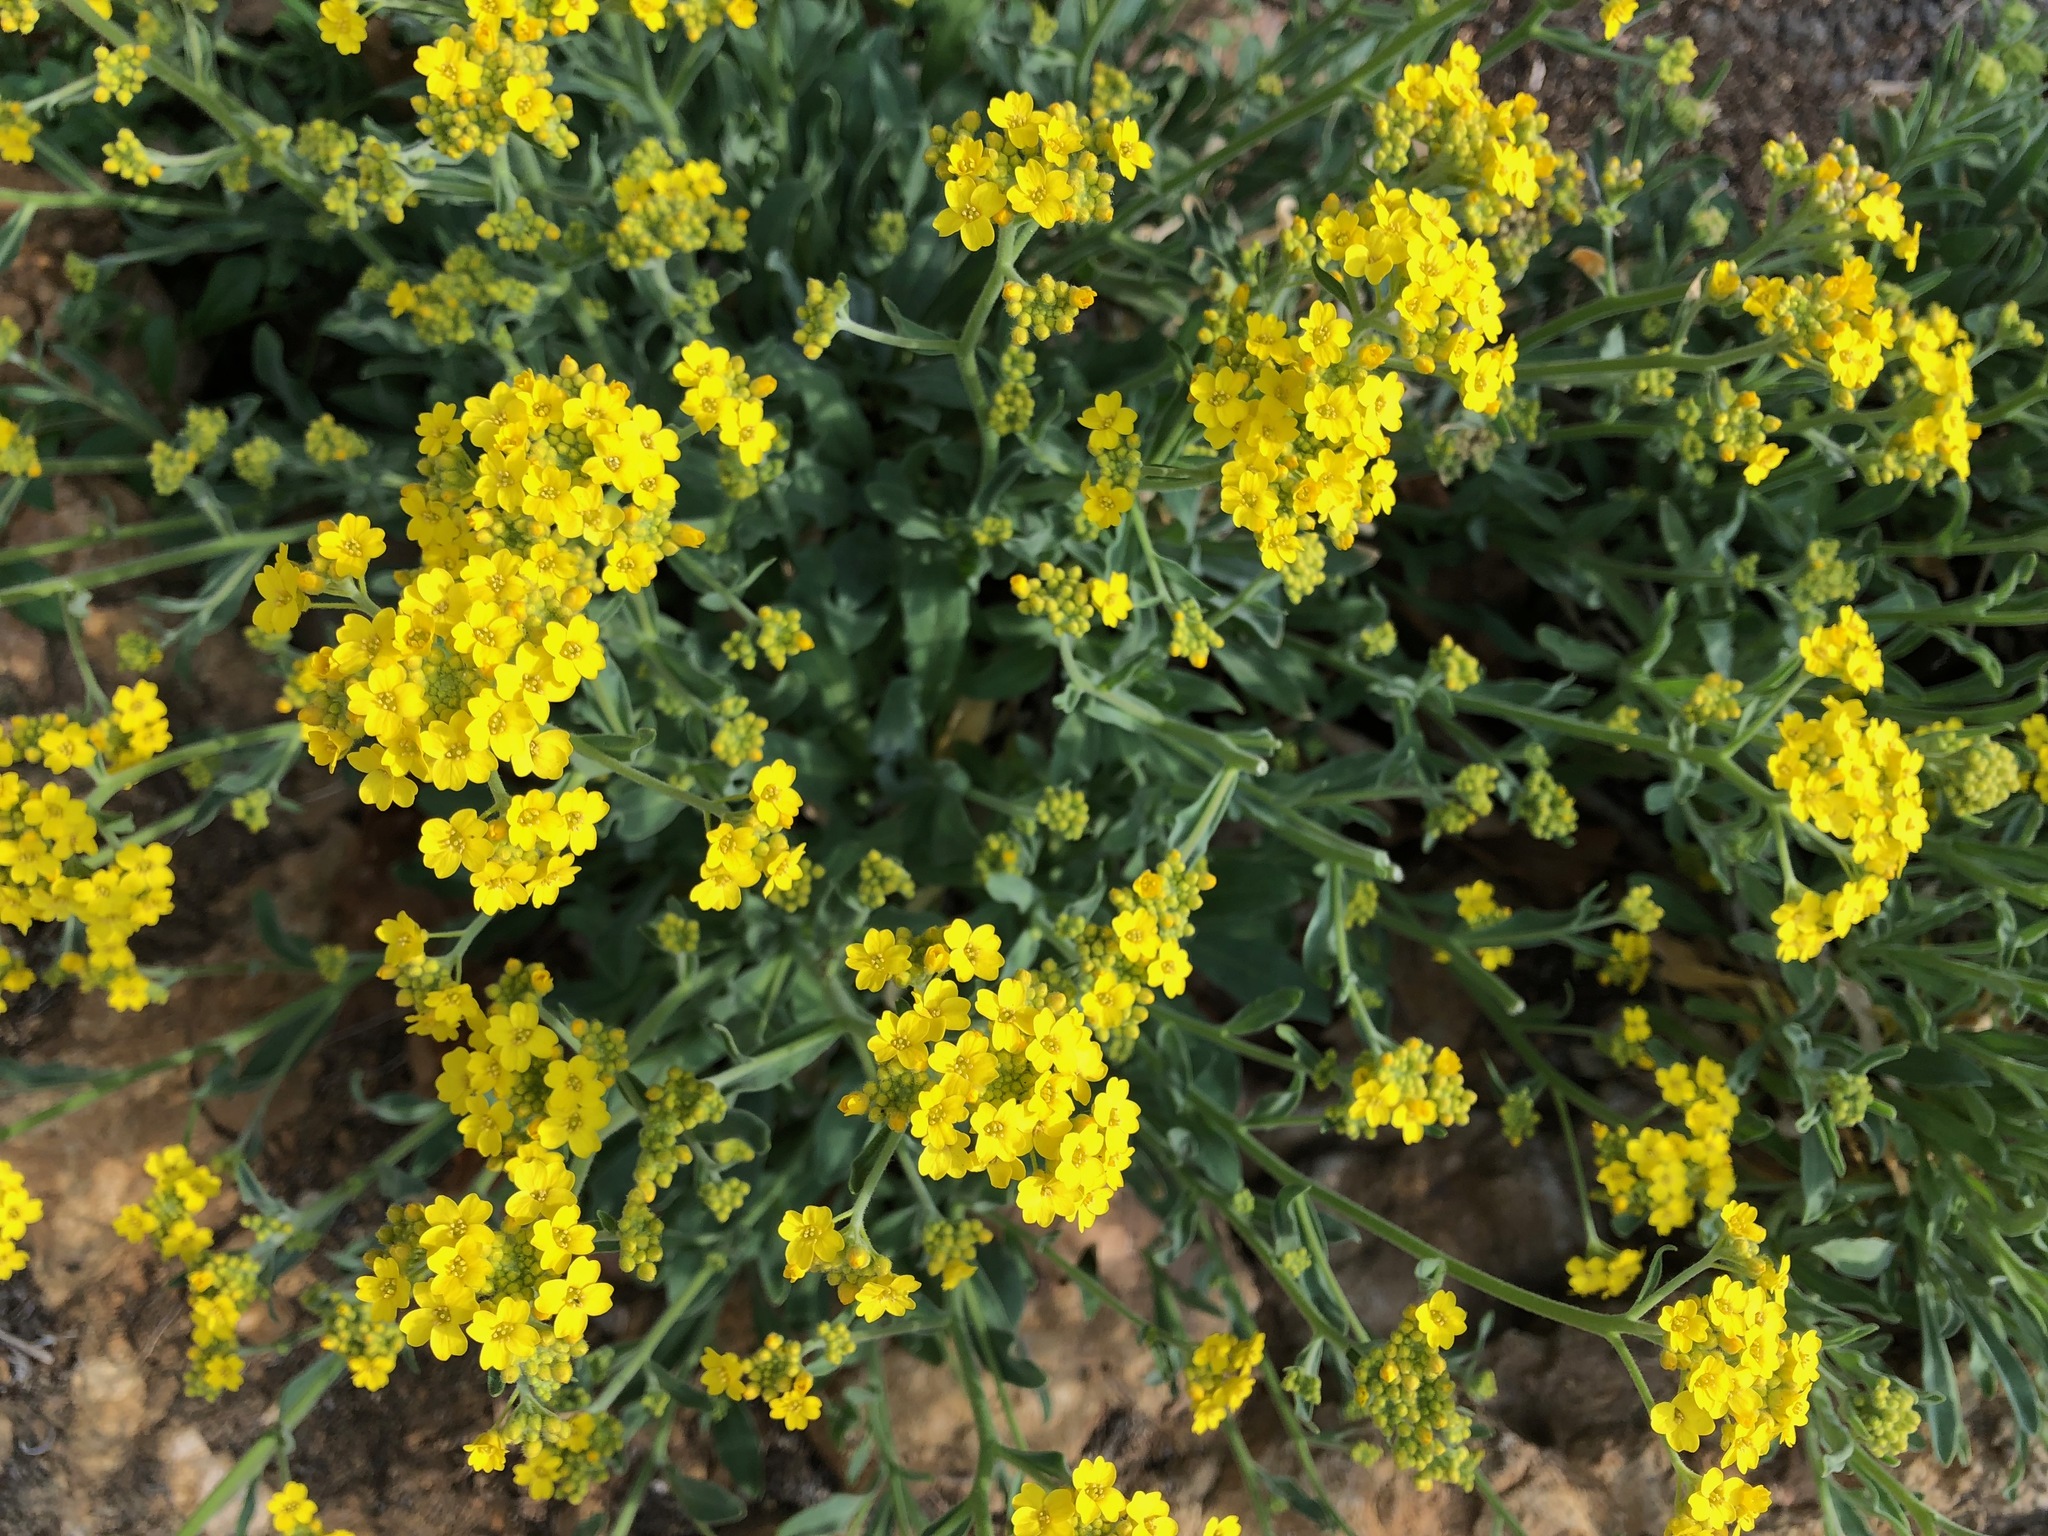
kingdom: Plantae
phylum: Tracheophyta
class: Magnoliopsida
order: Brassicales
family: Brassicaceae
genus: Aurinia
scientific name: Aurinia saxatilis
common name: Golden-tuft alyssum
